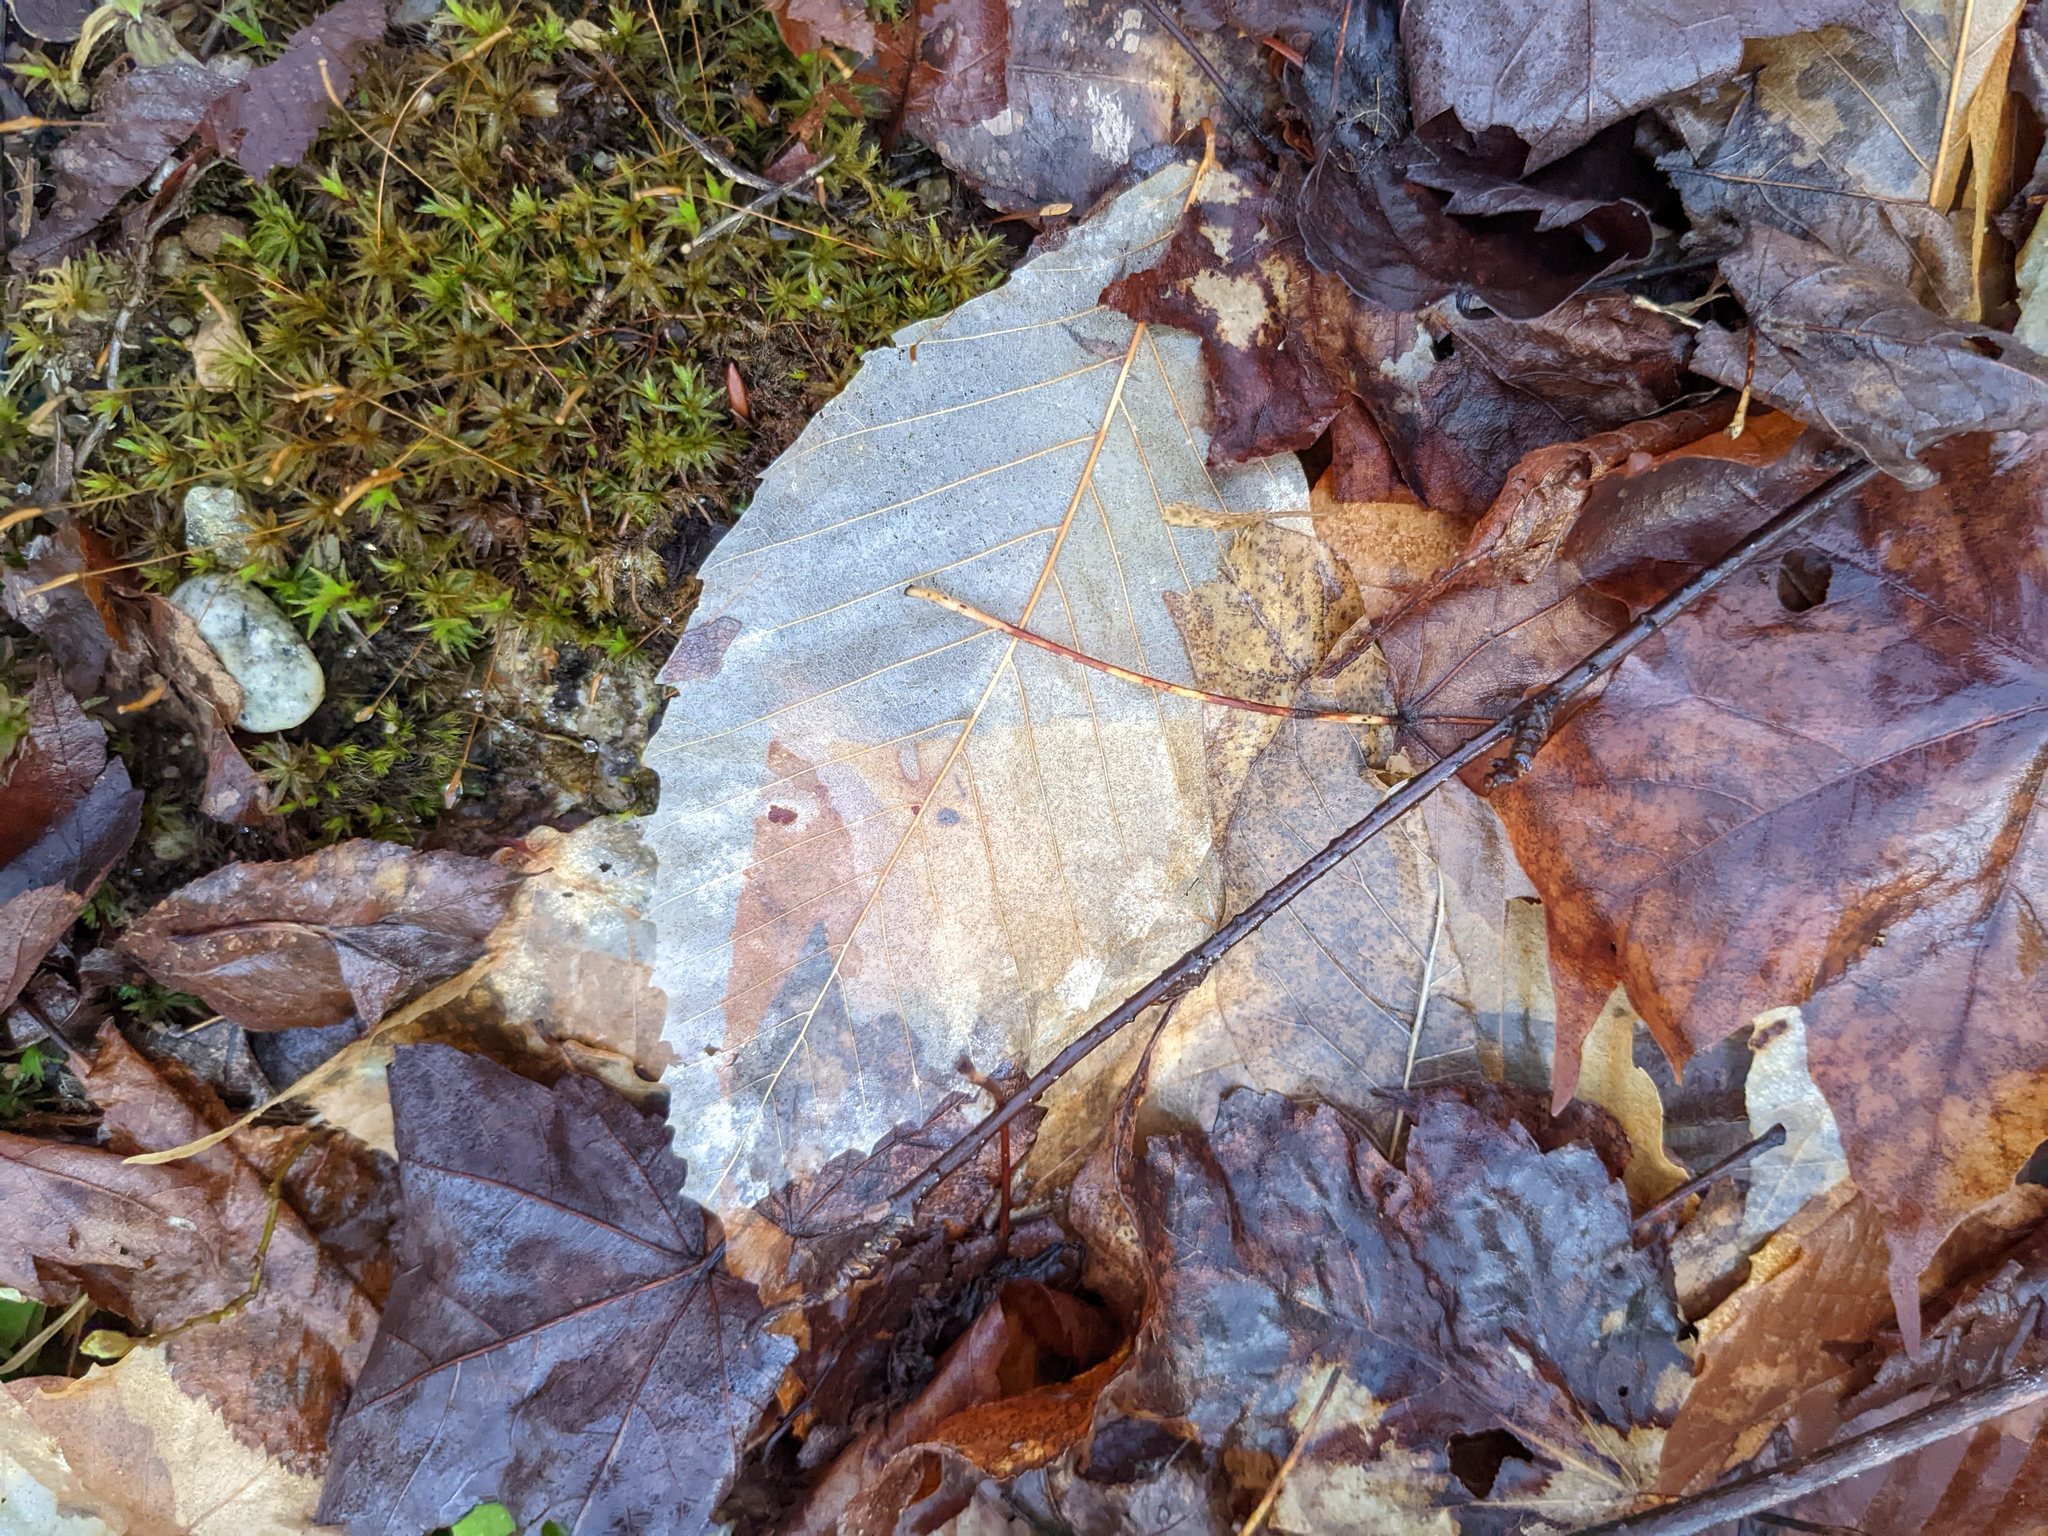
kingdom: Plantae
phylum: Tracheophyta
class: Magnoliopsida
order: Fagales
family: Fagaceae
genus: Fagus
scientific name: Fagus grandifolia
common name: American beech
